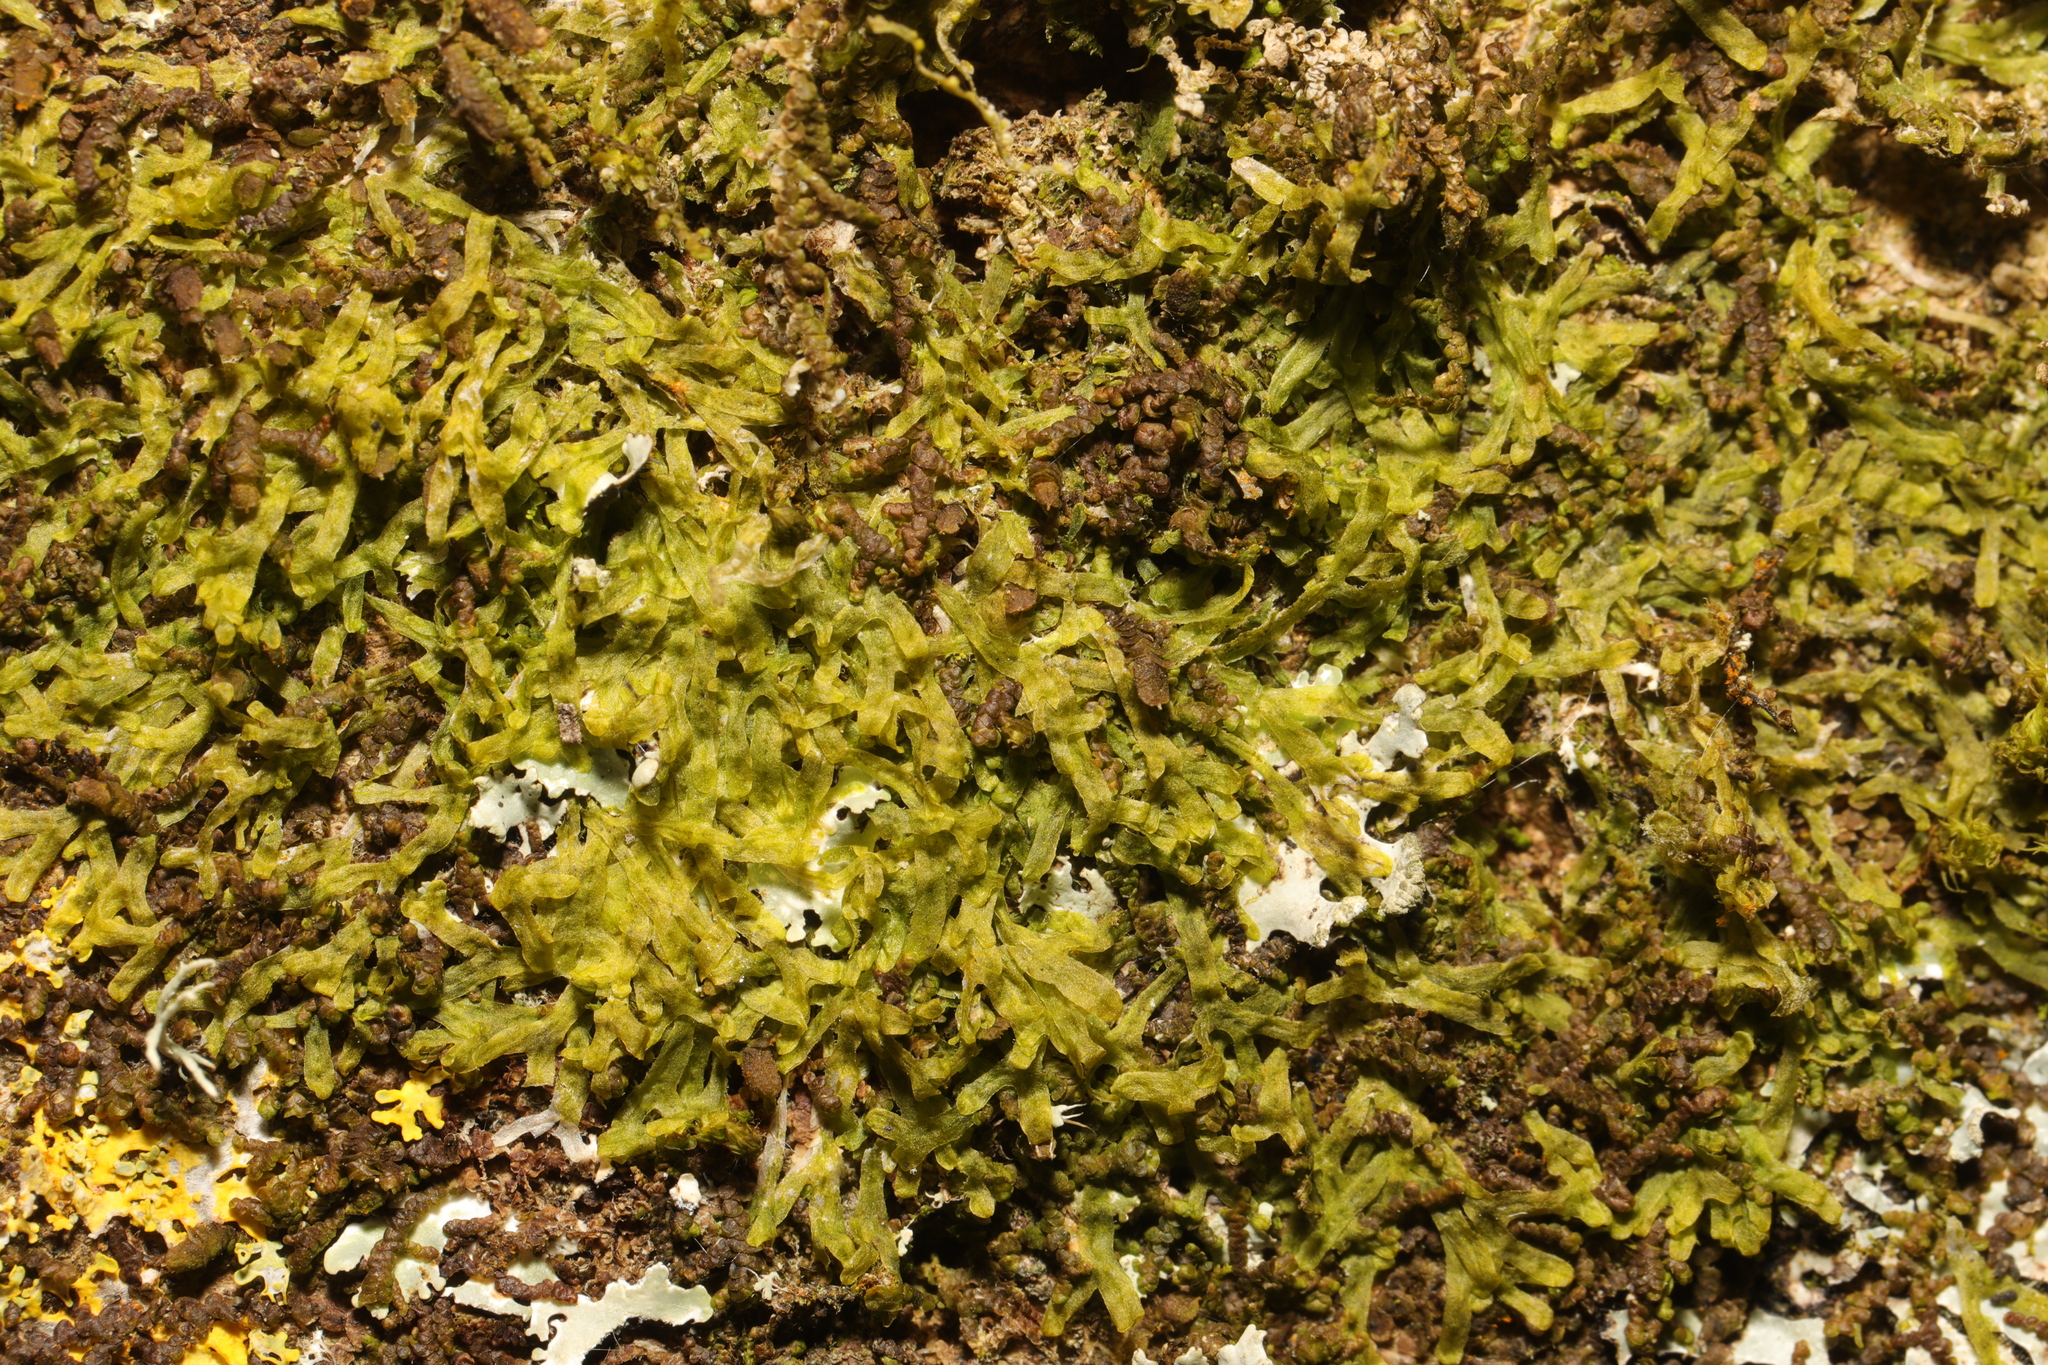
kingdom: Plantae
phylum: Marchantiophyta
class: Jungermanniopsida
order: Metzgeriales
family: Metzgeriaceae
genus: Metzgeria
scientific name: Metzgeria furcata
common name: Forked veilwort
